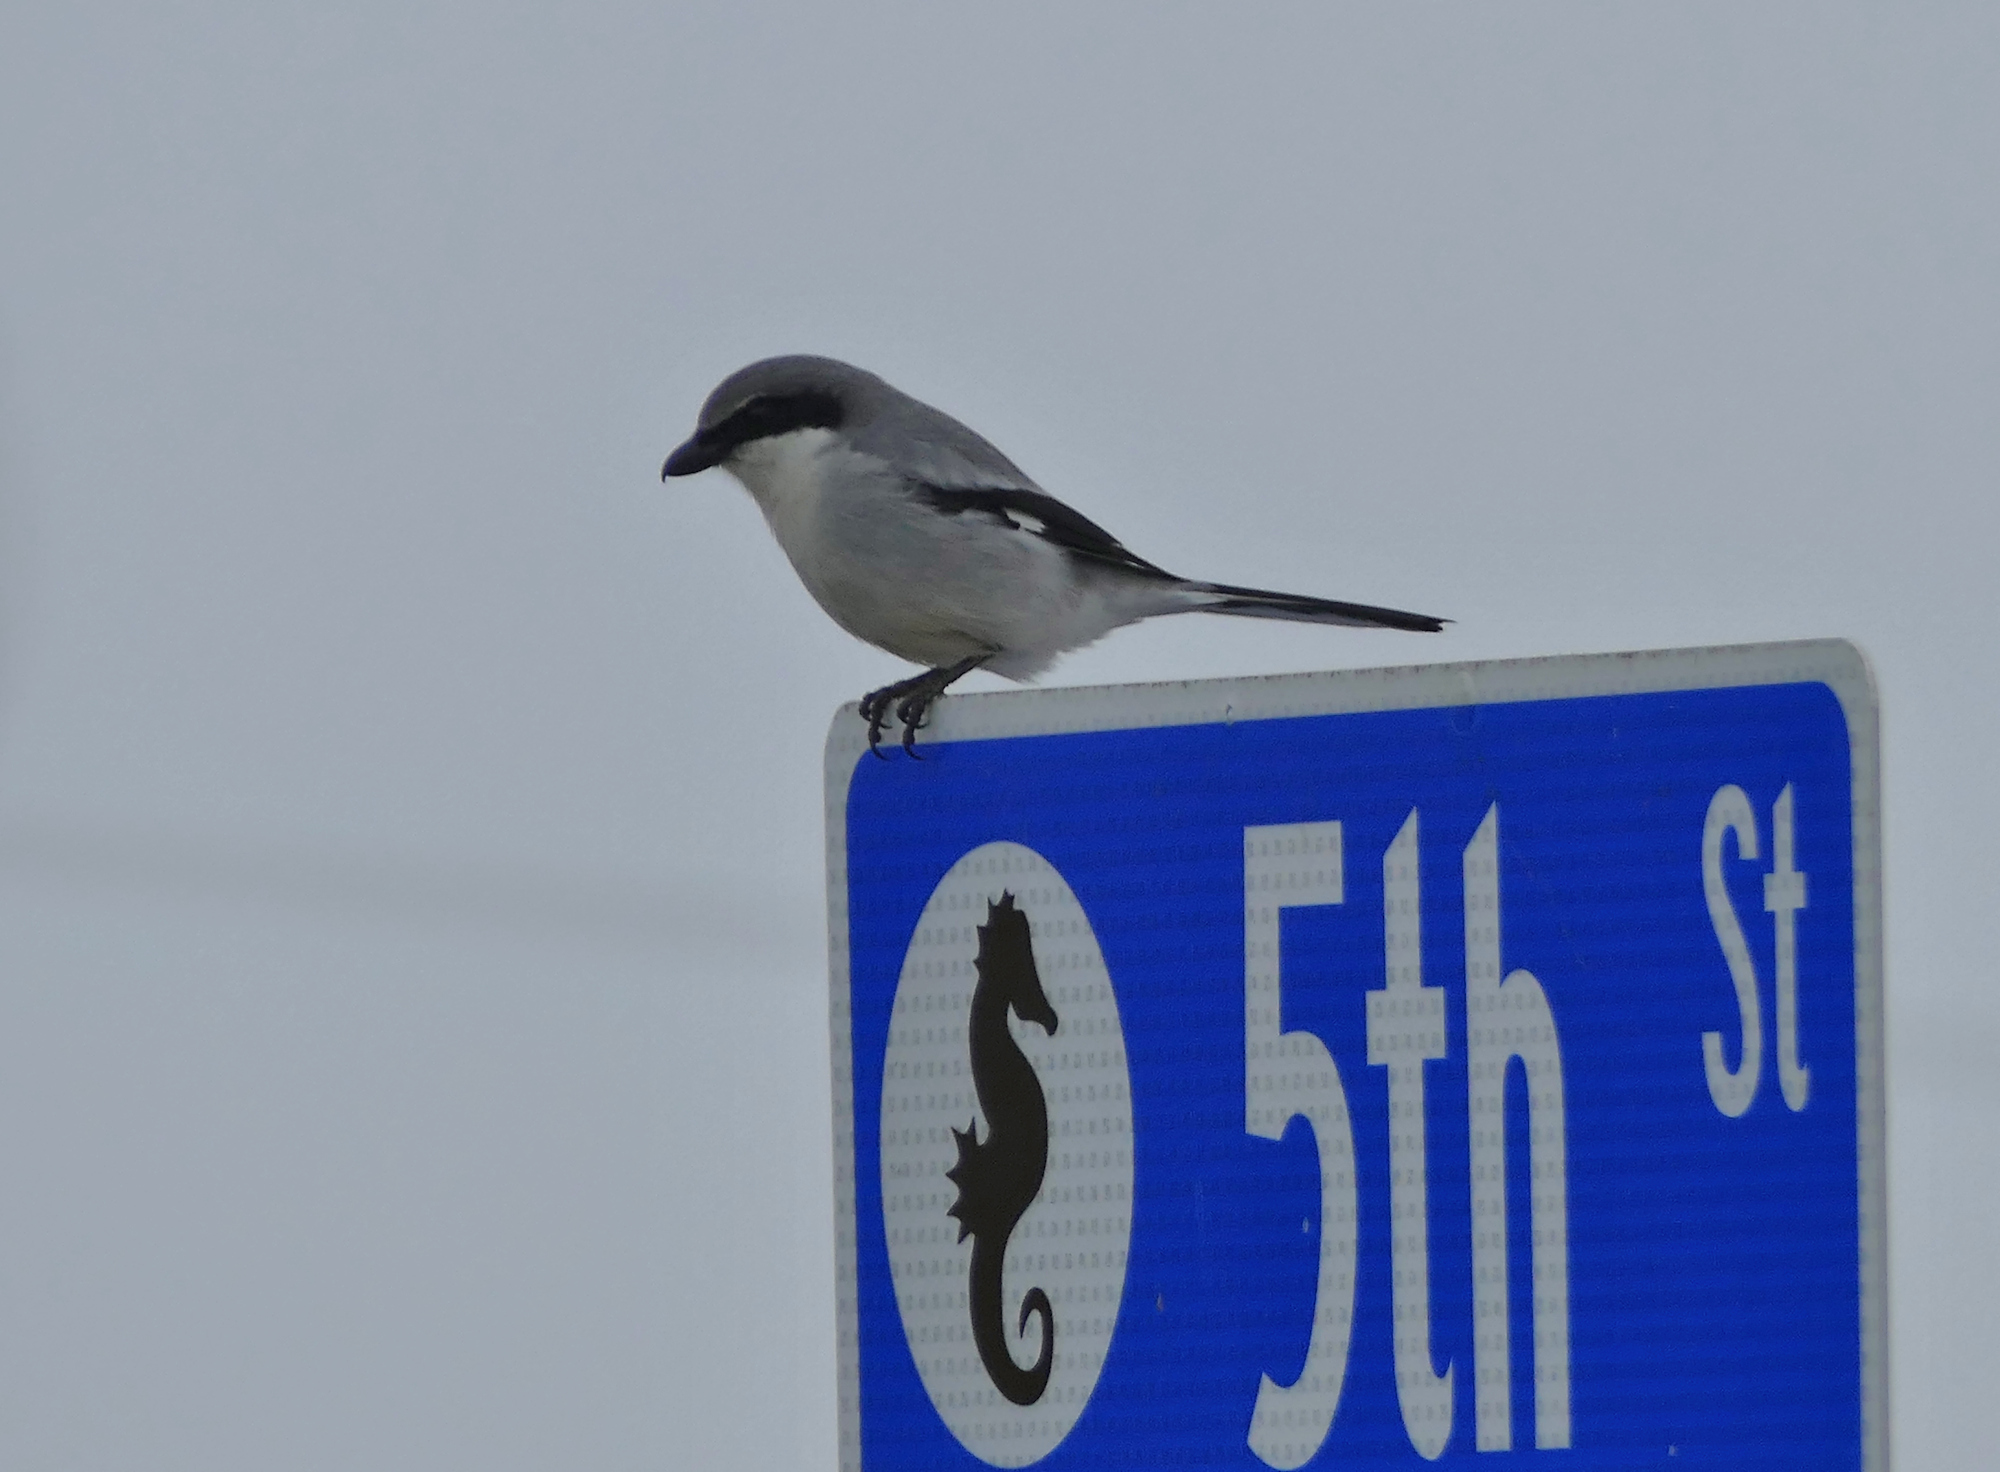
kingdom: Animalia
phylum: Chordata
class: Aves
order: Passeriformes
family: Laniidae
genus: Lanius
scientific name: Lanius ludovicianus
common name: Loggerhead shrike
